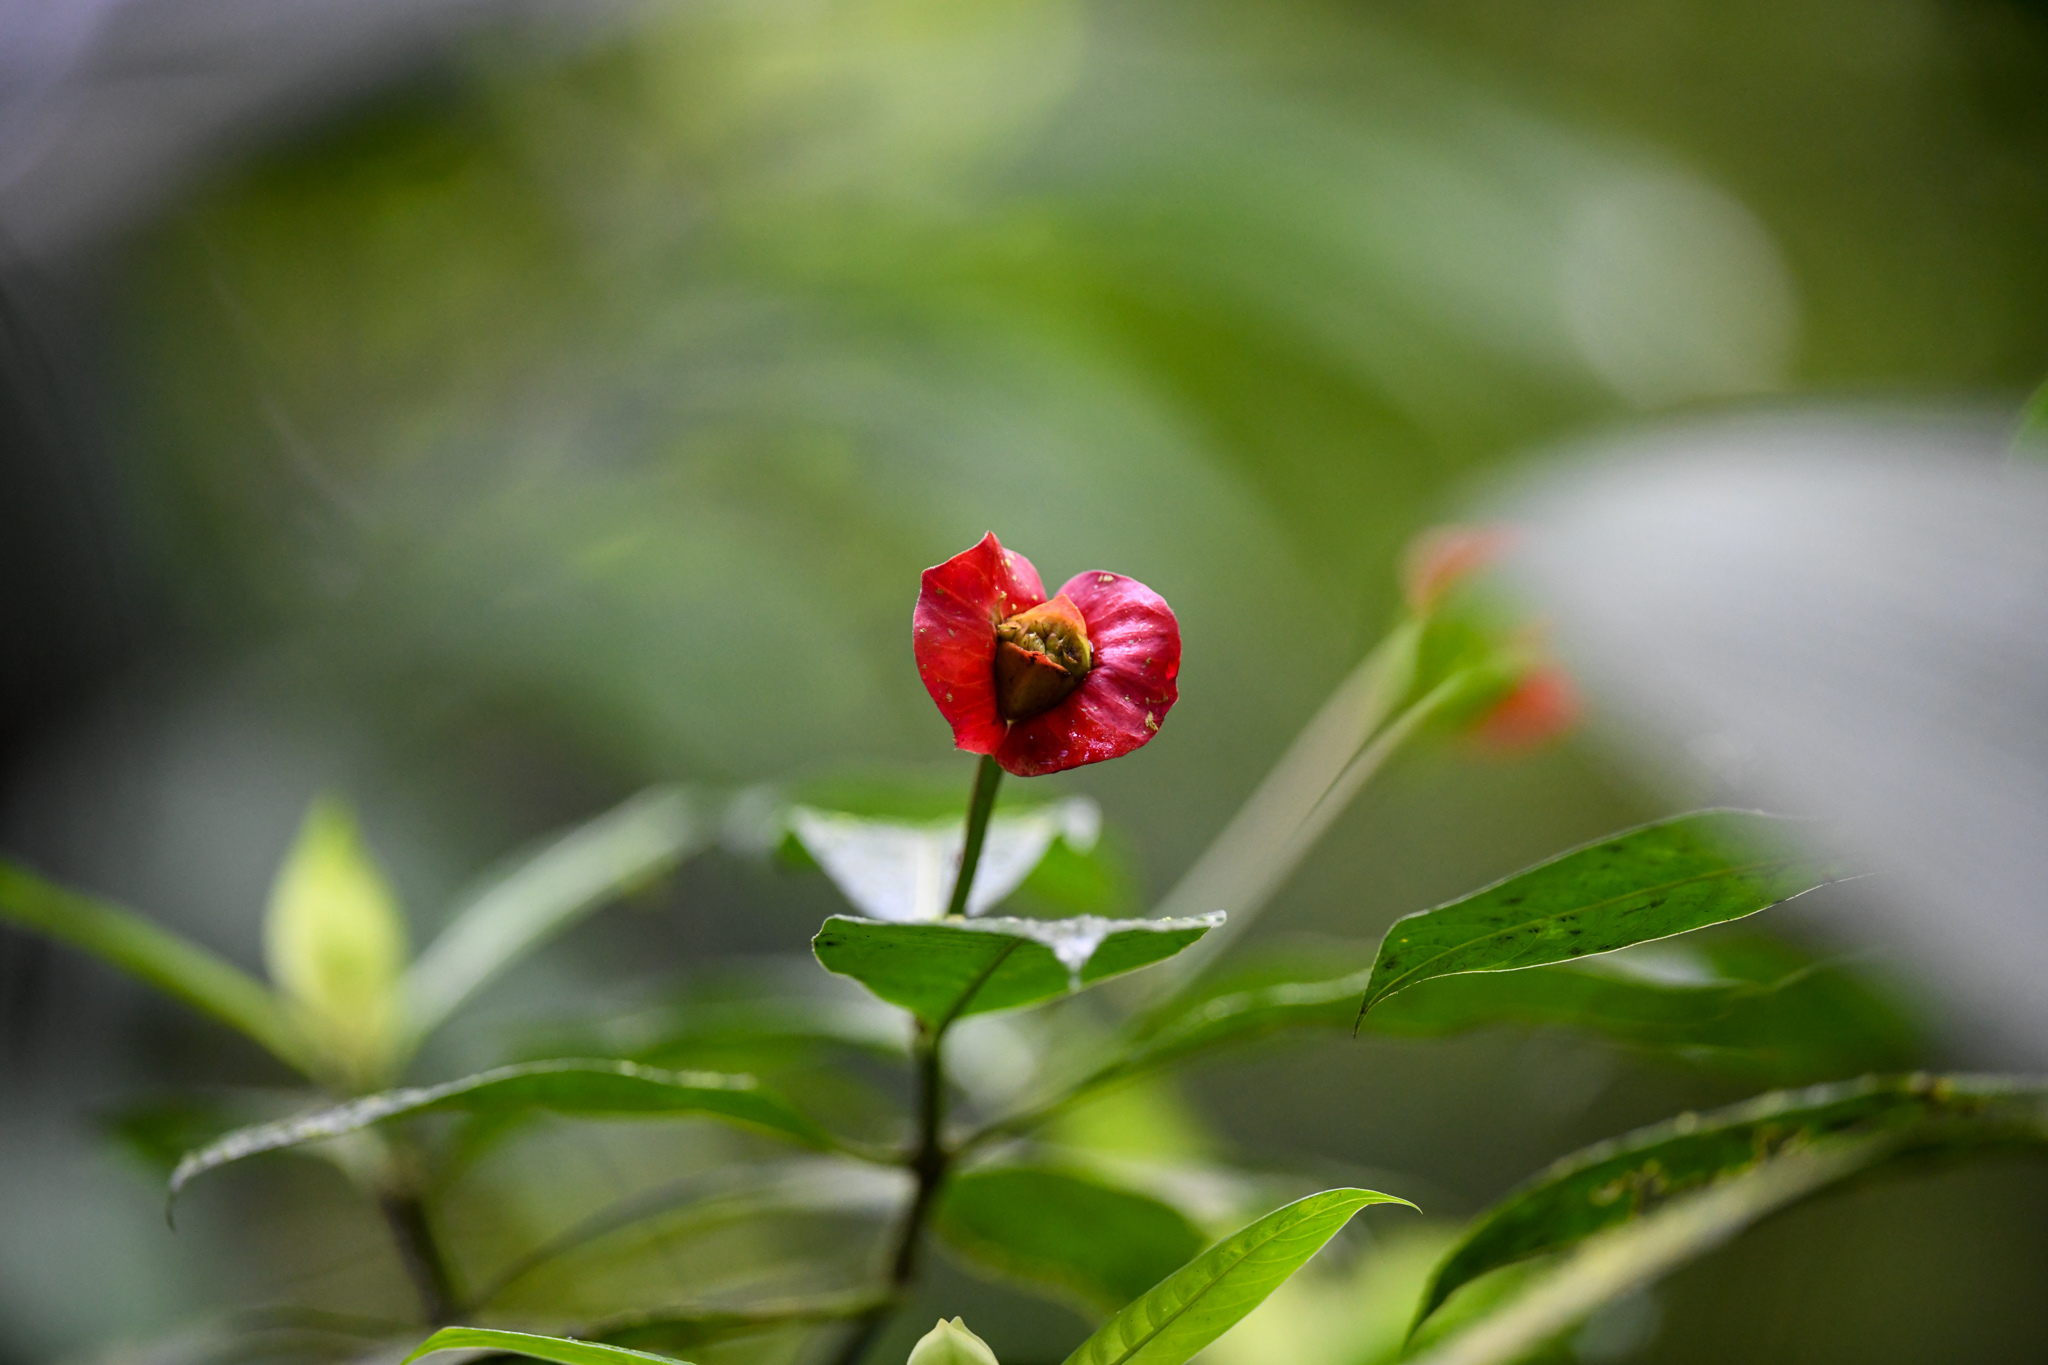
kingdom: Plantae
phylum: Tracheophyta
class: Magnoliopsida
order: Gentianales
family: Rubiaceae
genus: Palicourea
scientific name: Palicourea elata
